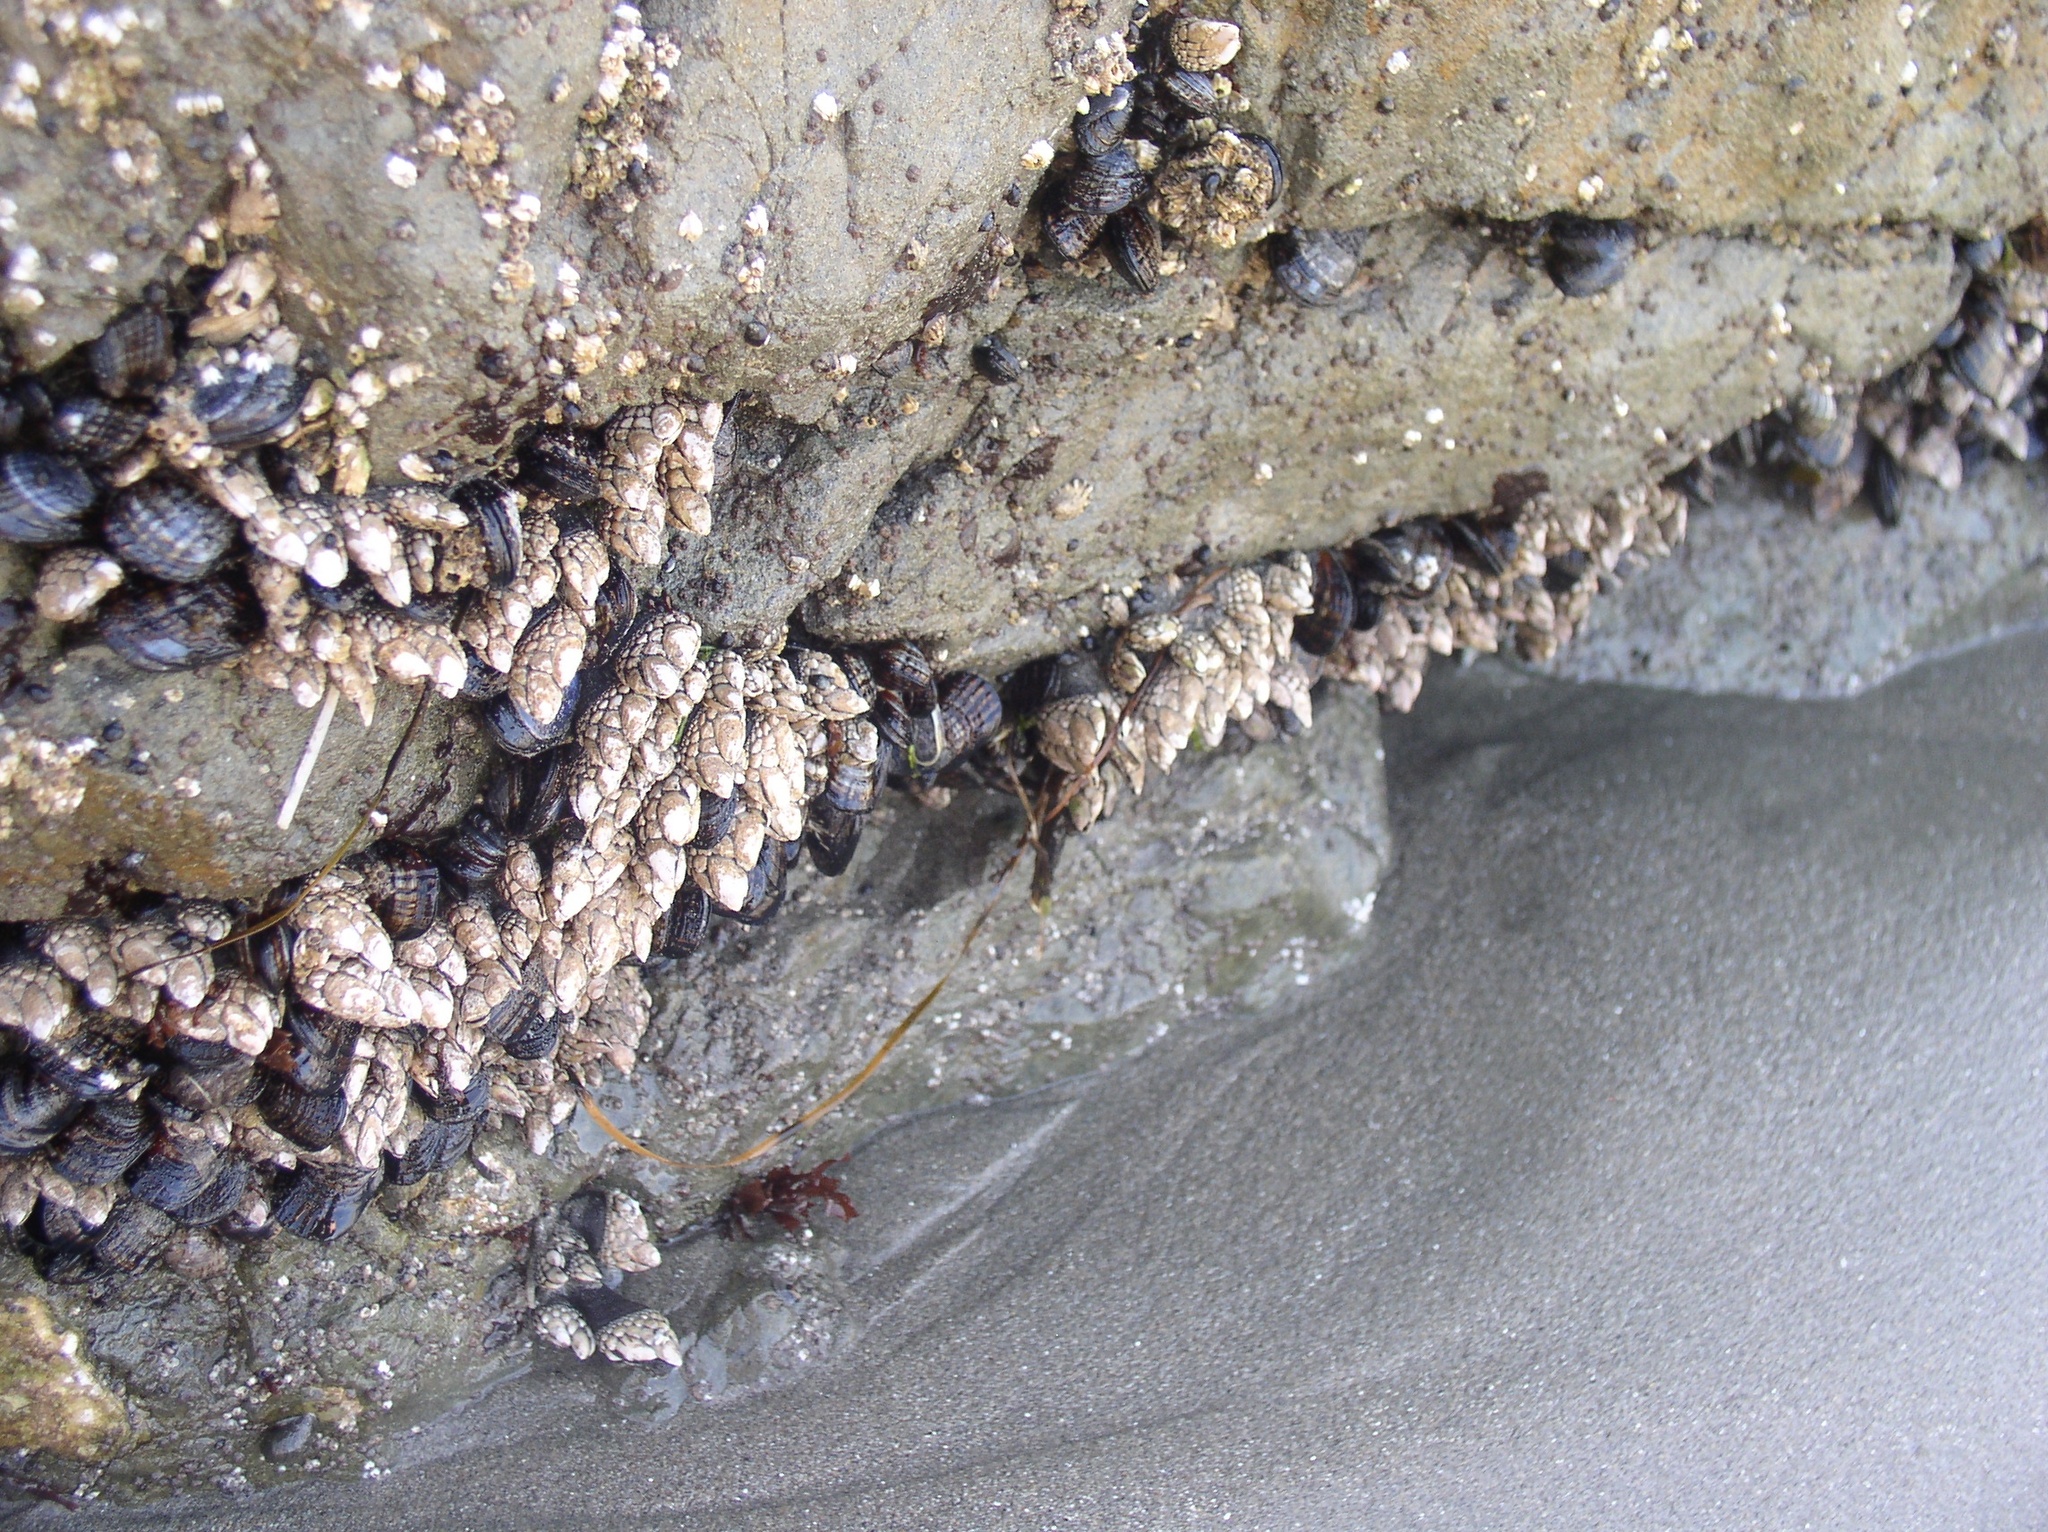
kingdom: Animalia
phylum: Arthropoda
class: Maxillopoda
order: Pedunculata
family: Pollicipedidae
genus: Pollicipes
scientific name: Pollicipes polymerus
